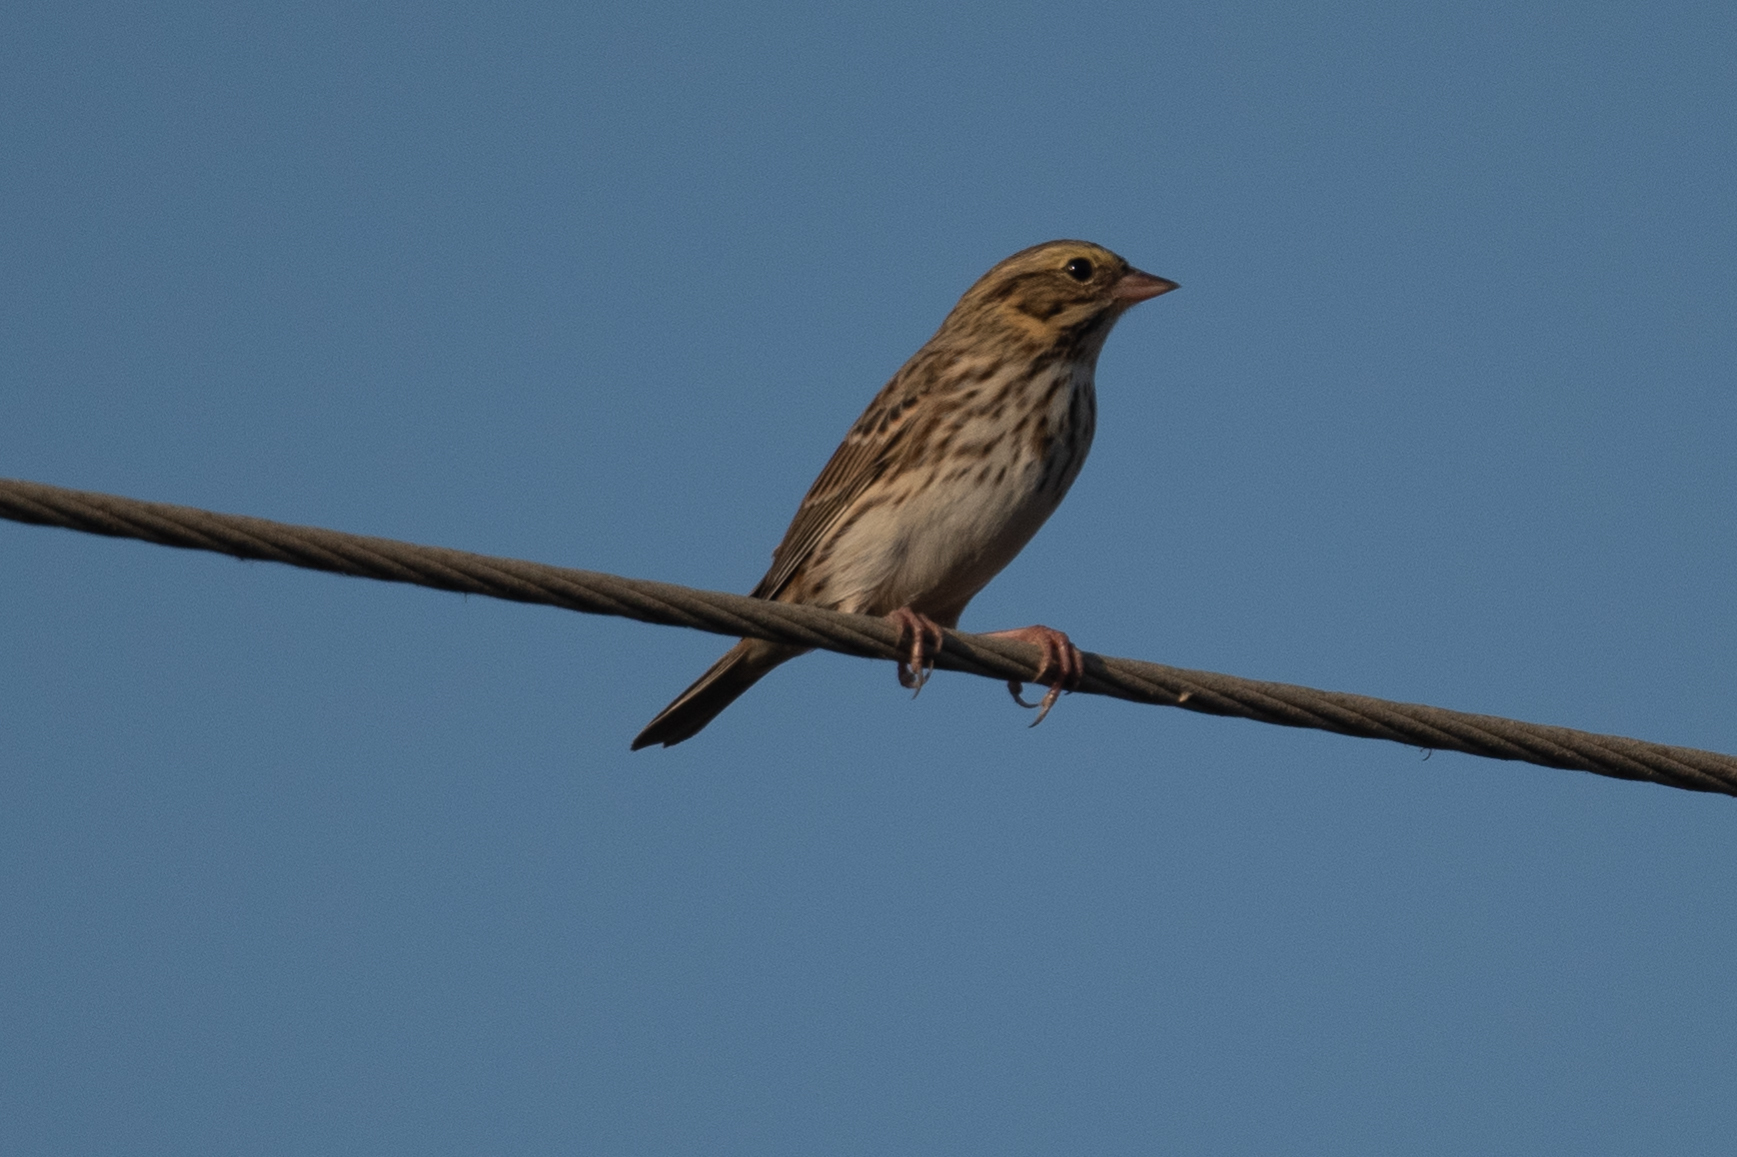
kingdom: Animalia
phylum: Chordata
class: Aves
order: Passeriformes
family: Passerellidae
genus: Passerculus
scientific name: Passerculus sandwichensis
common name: Savannah sparrow
